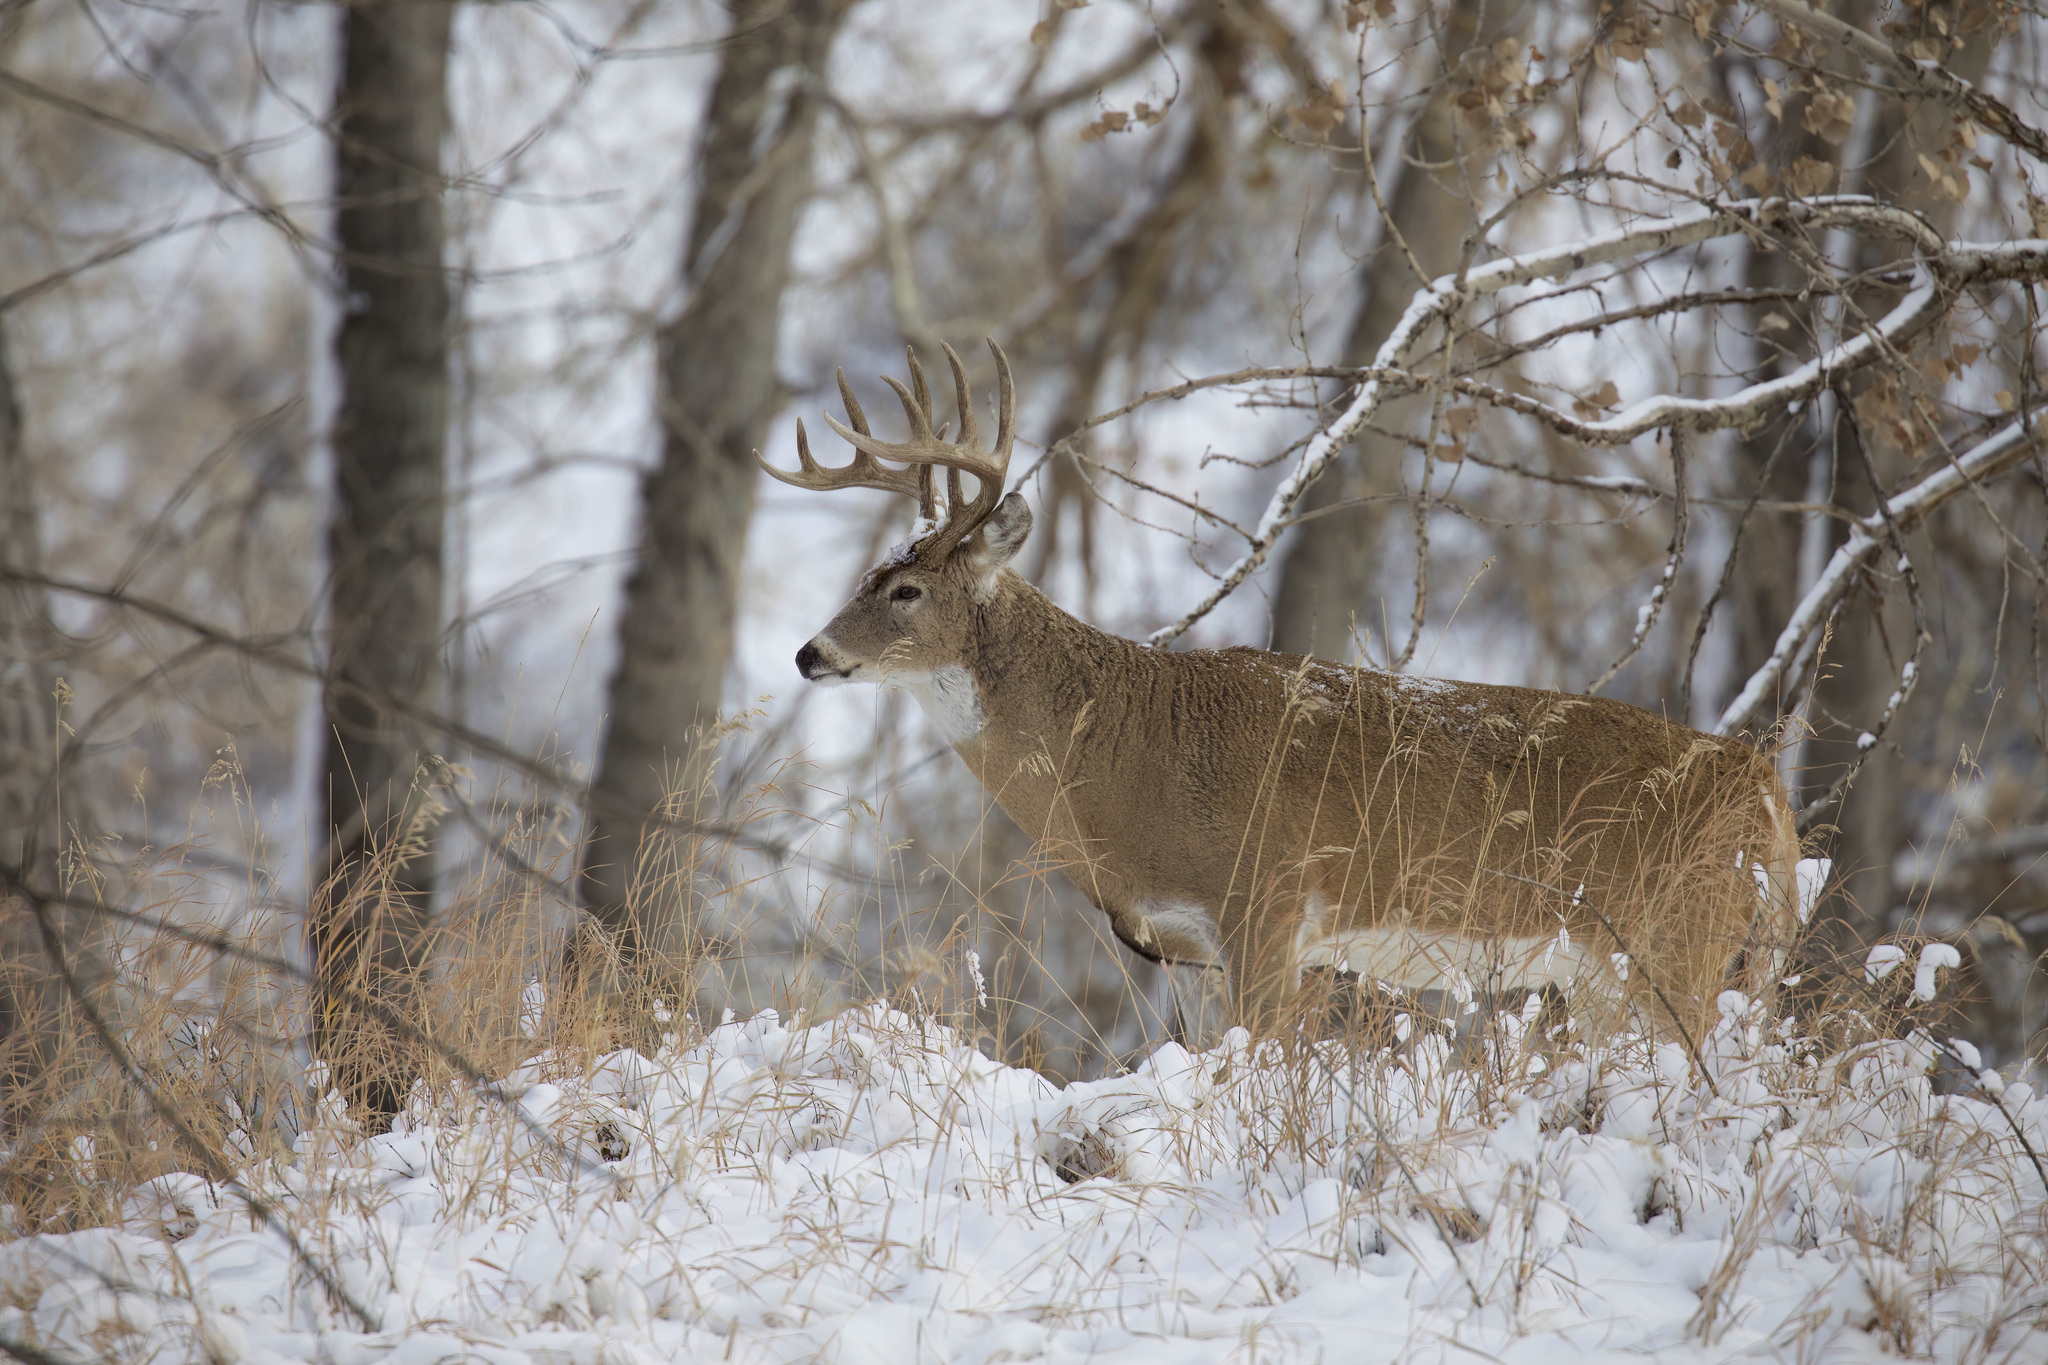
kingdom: Animalia
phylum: Chordata
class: Mammalia
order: Artiodactyla
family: Cervidae
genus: Odocoileus
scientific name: Odocoileus virginianus
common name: White-tailed deer
